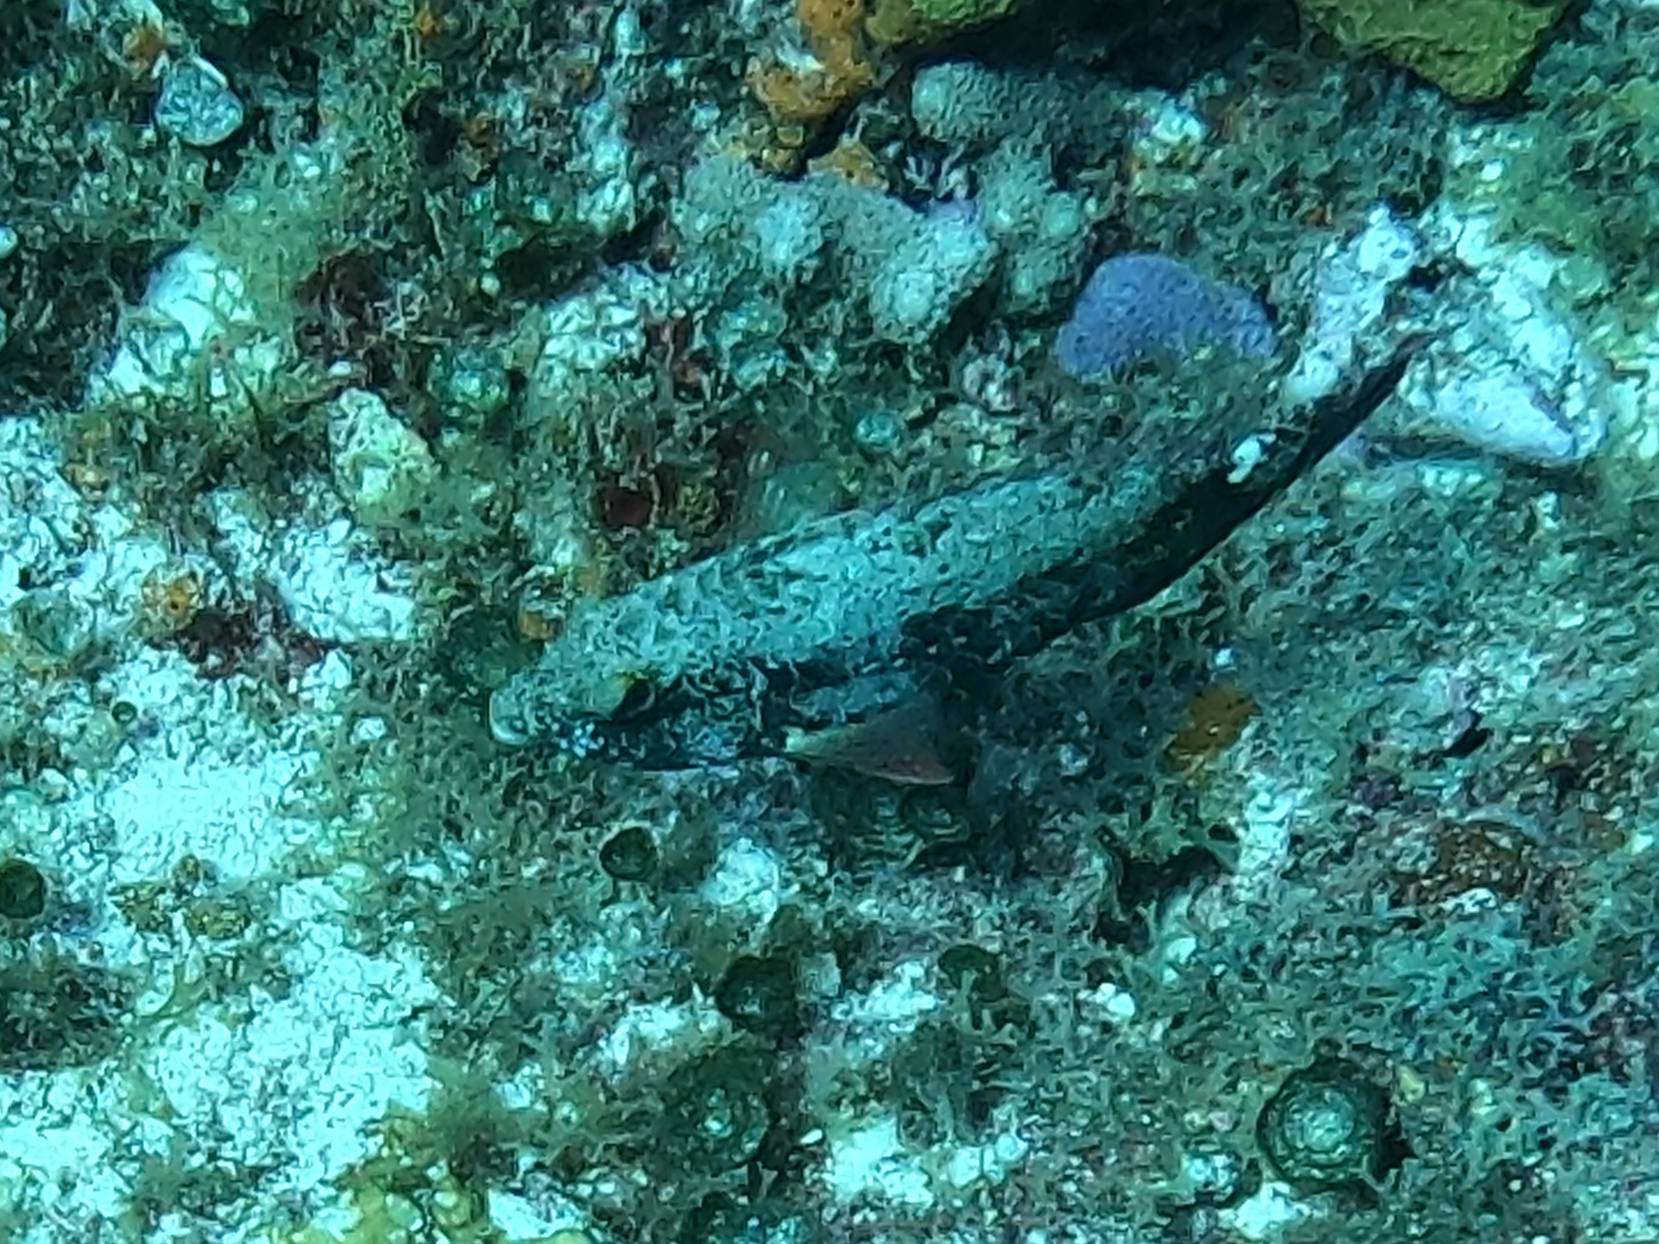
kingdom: Animalia
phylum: Chordata
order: Perciformes
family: Scaridae
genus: Sparisoma
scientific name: Sparisoma aurofrenatum
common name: Redband parrotfish
